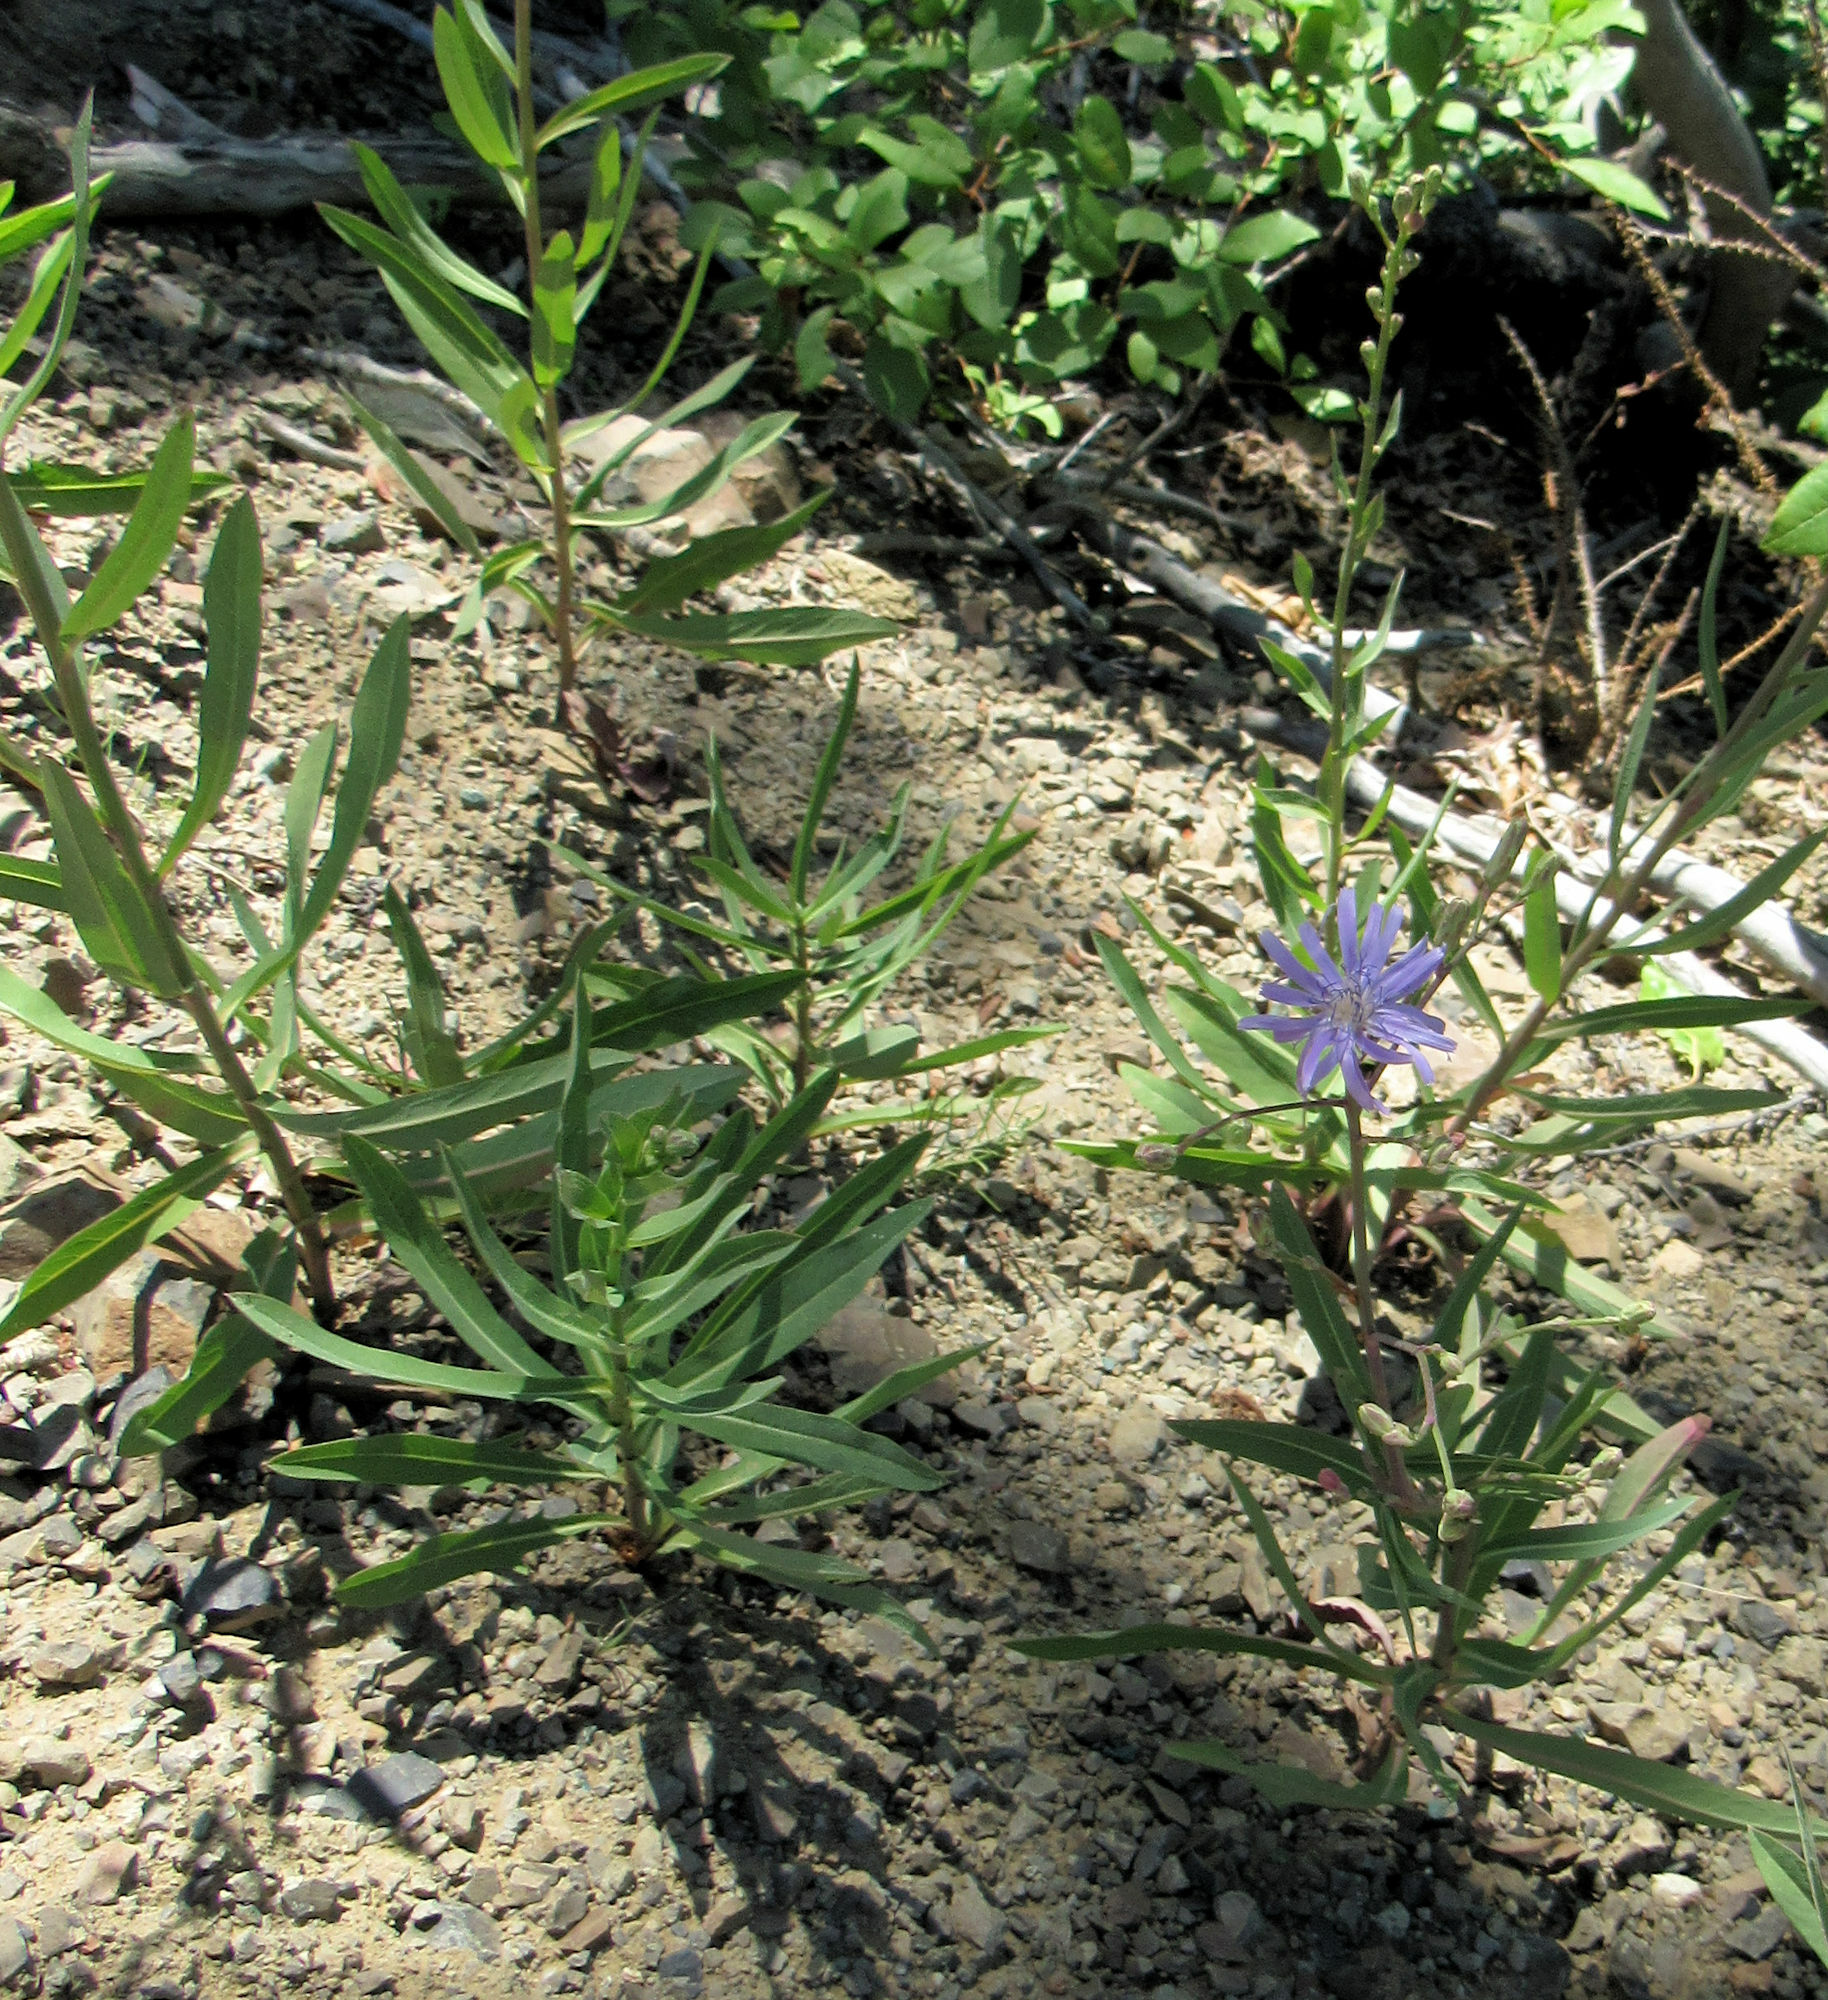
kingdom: Plantae
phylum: Tracheophyta
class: Magnoliopsida
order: Asterales
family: Asteraceae
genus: Lactuca
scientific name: Lactuca pulchella
